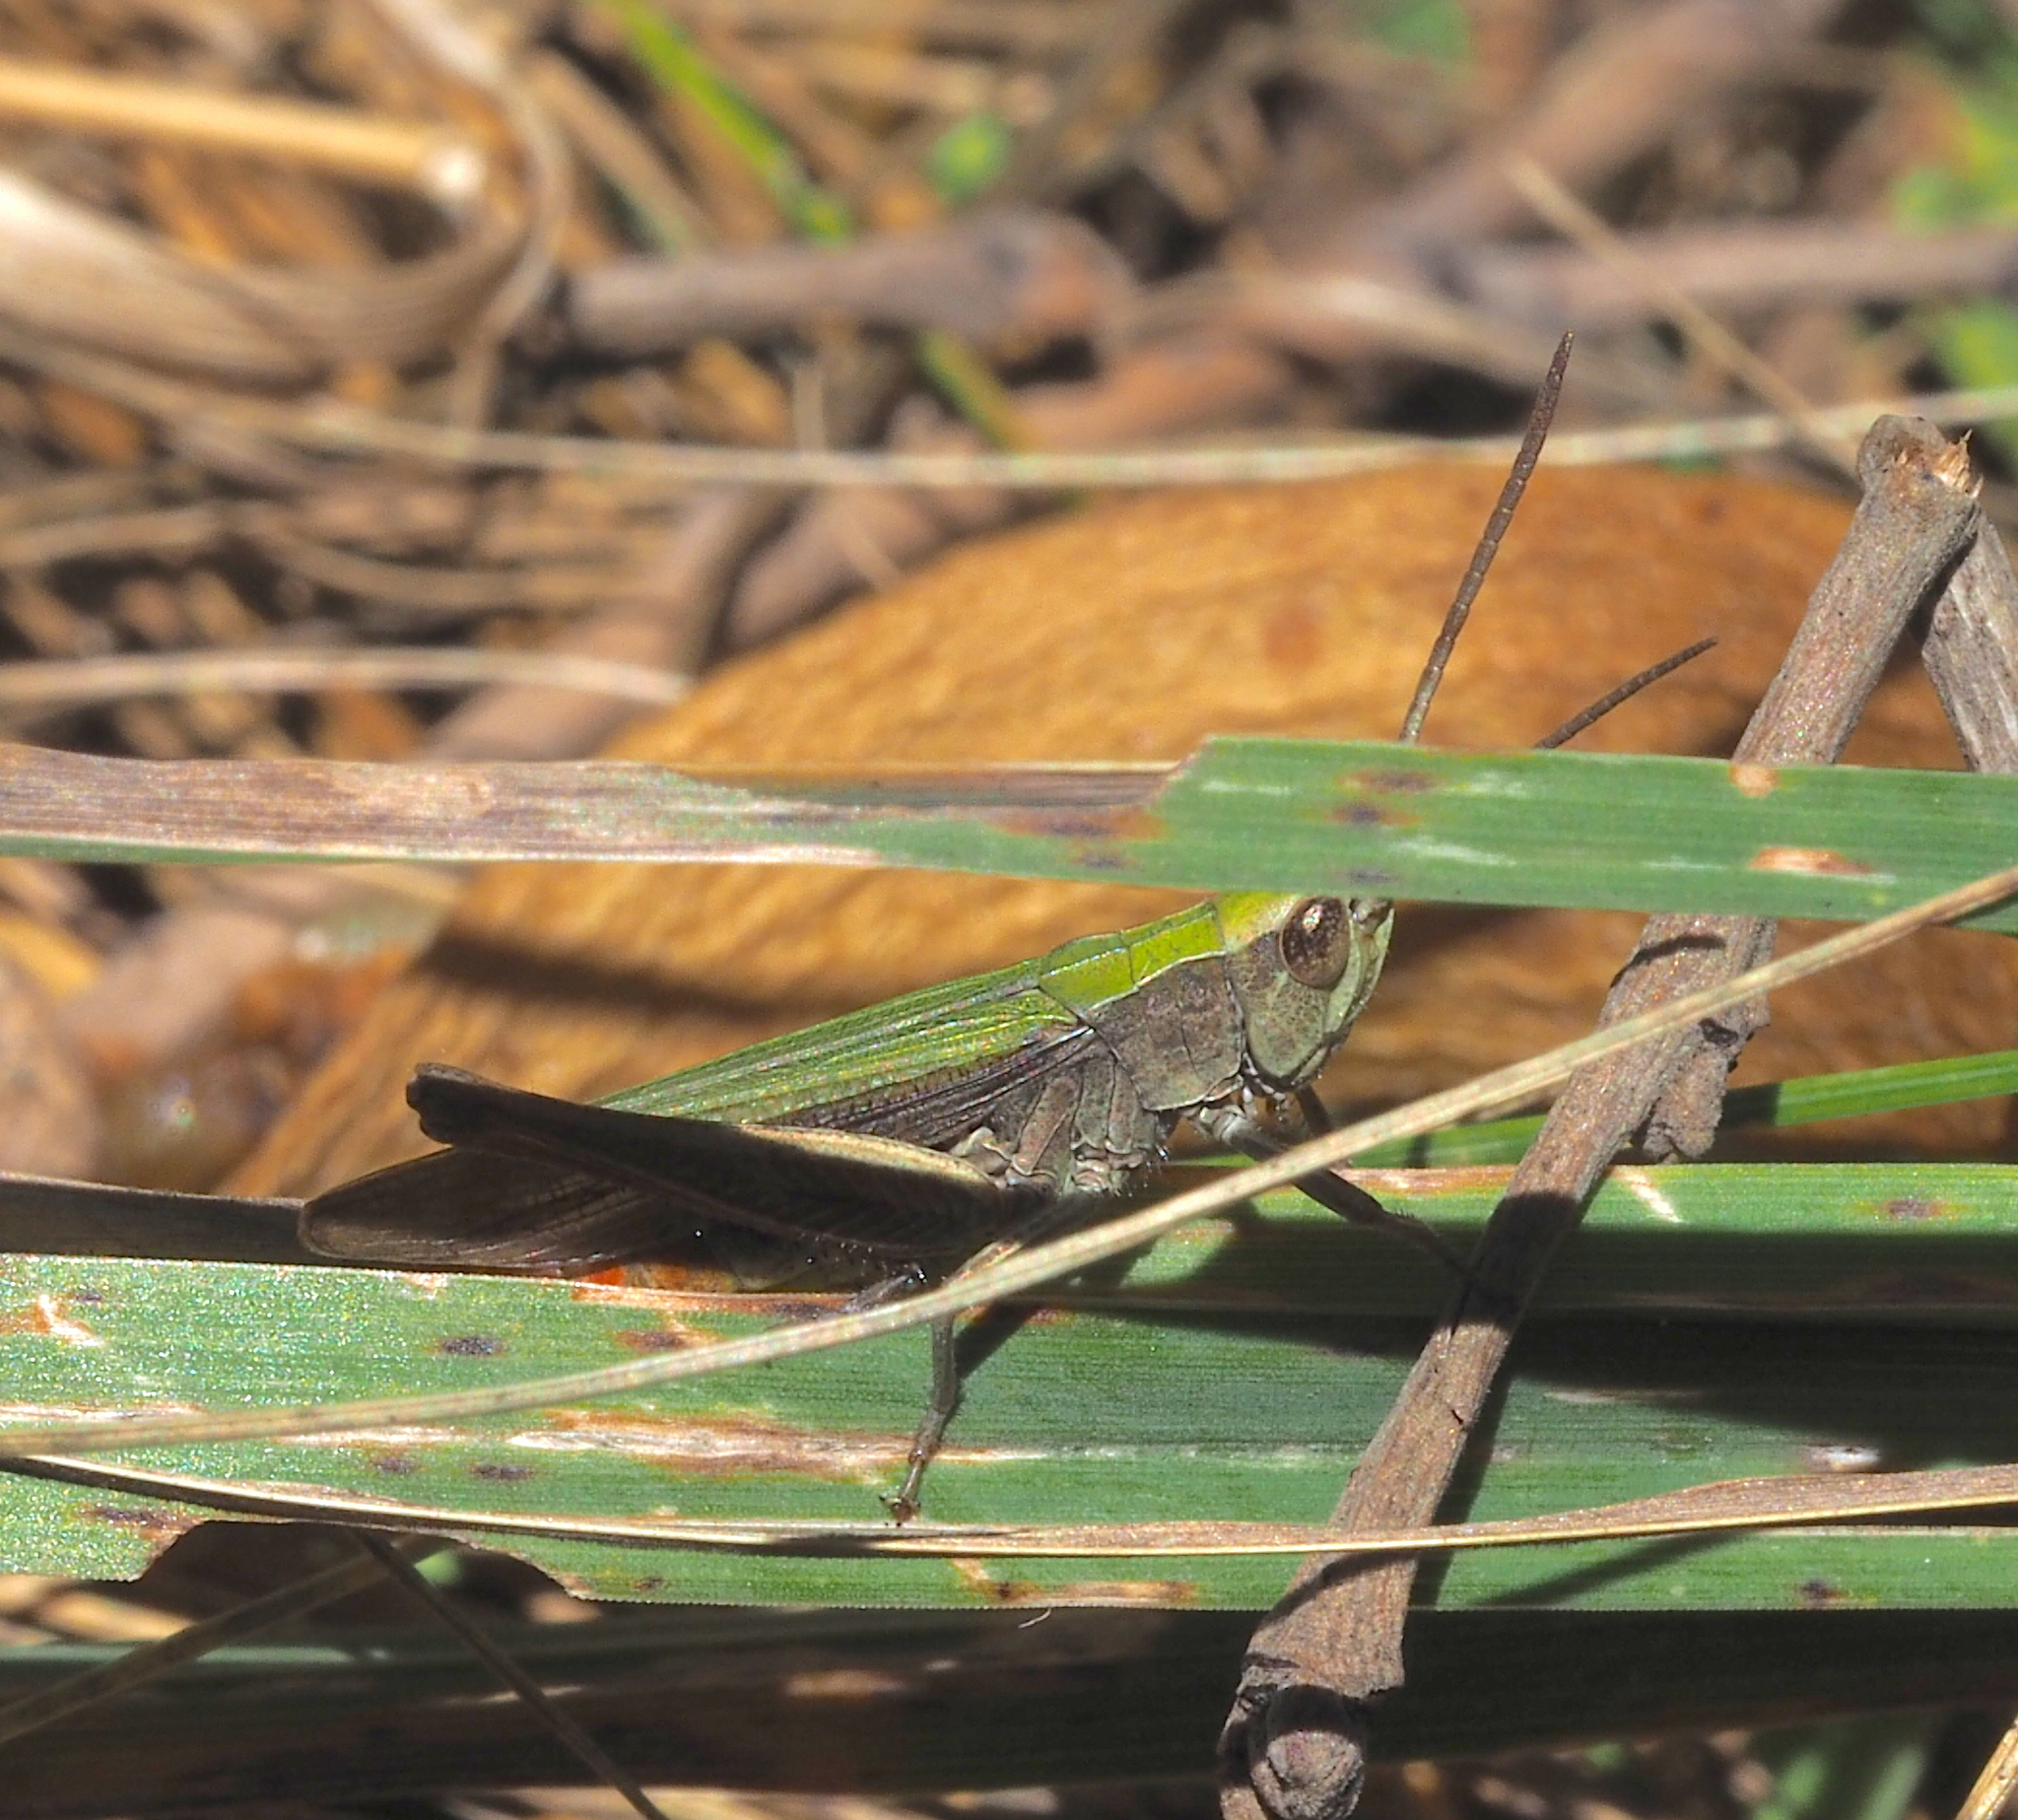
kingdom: Animalia
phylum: Arthropoda
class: Insecta
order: Orthoptera
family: Acrididae
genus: Chorthippus
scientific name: Chorthippus dorsatus
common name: Steppe grasshopper
